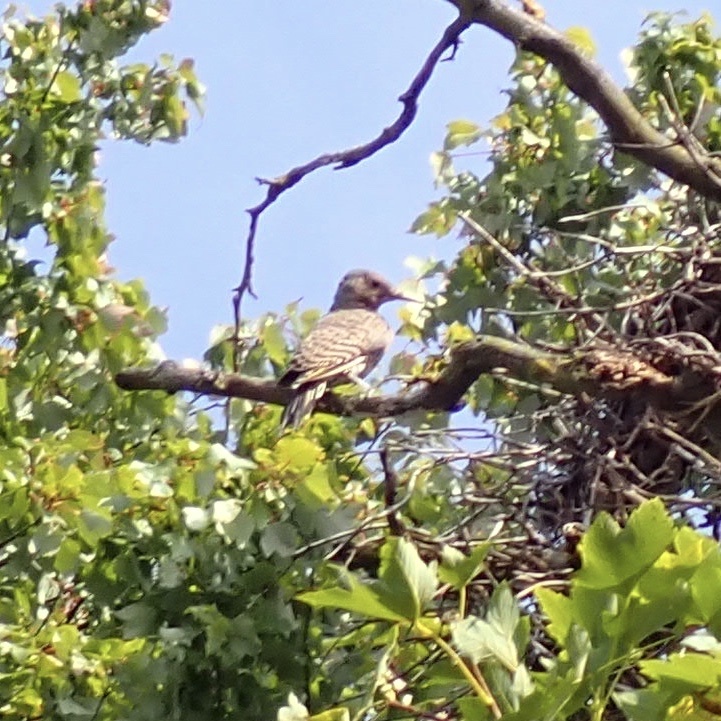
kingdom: Animalia
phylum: Chordata
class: Aves
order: Piciformes
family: Picidae
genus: Colaptes
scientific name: Colaptes auratus
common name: Northern flicker
